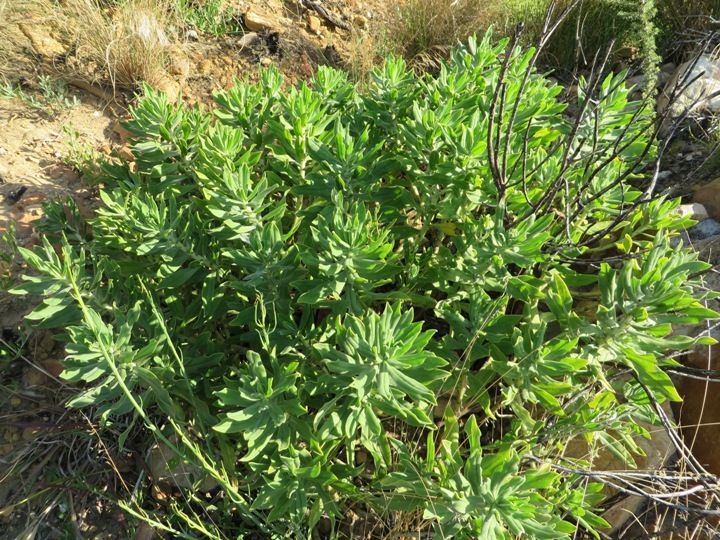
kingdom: Plantae
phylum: Tracheophyta
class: Magnoliopsida
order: Boraginales
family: Boraginaceae
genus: Lobostemon
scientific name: Lobostemon montanus
